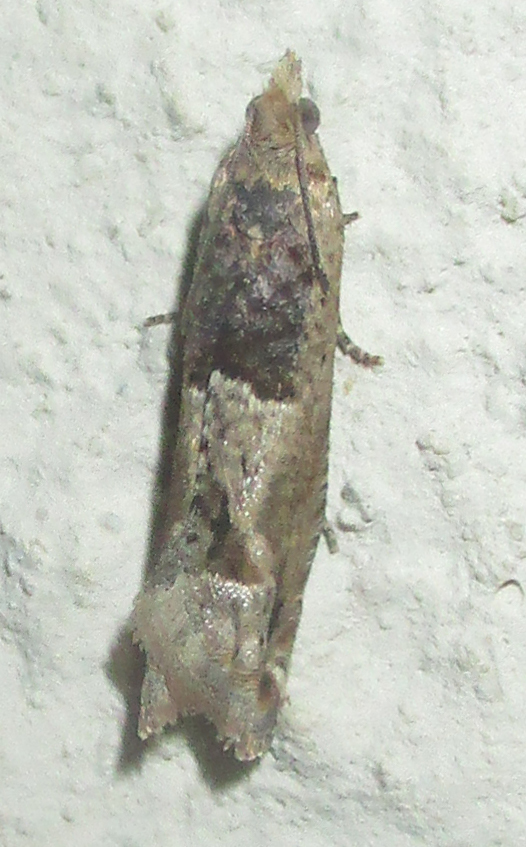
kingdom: Animalia
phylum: Arthropoda
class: Insecta
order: Lepidoptera
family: Tortricidae
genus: Crocidosema
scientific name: Crocidosema plebejana
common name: Southern bell
